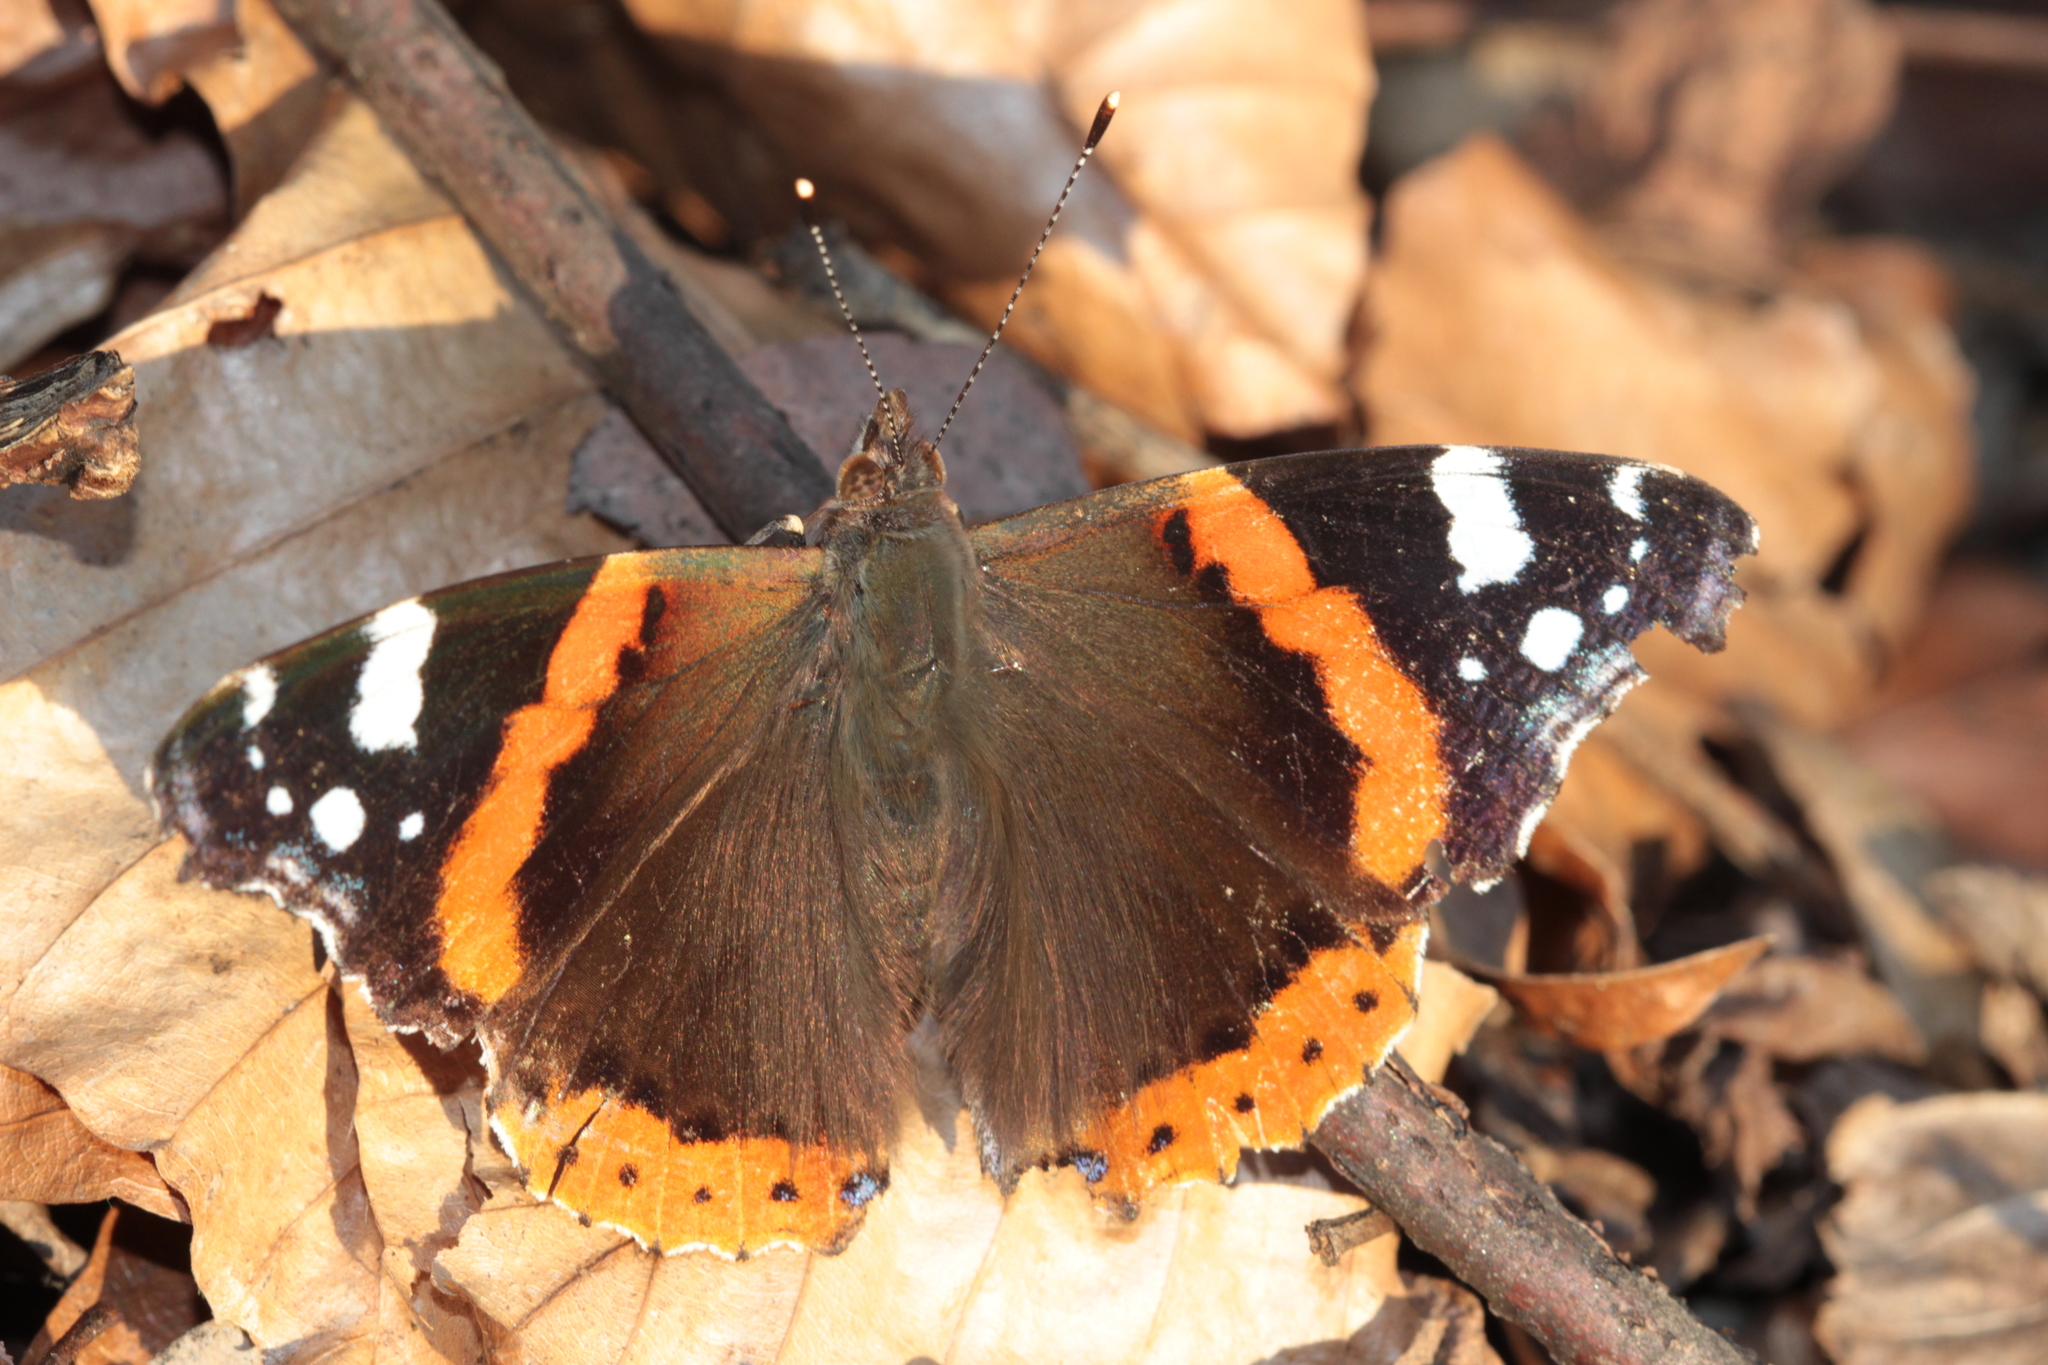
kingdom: Animalia
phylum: Arthropoda
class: Insecta
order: Lepidoptera
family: Nymphalidae
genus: Vanessa
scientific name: Vanessa atalanta
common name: Red admiral
